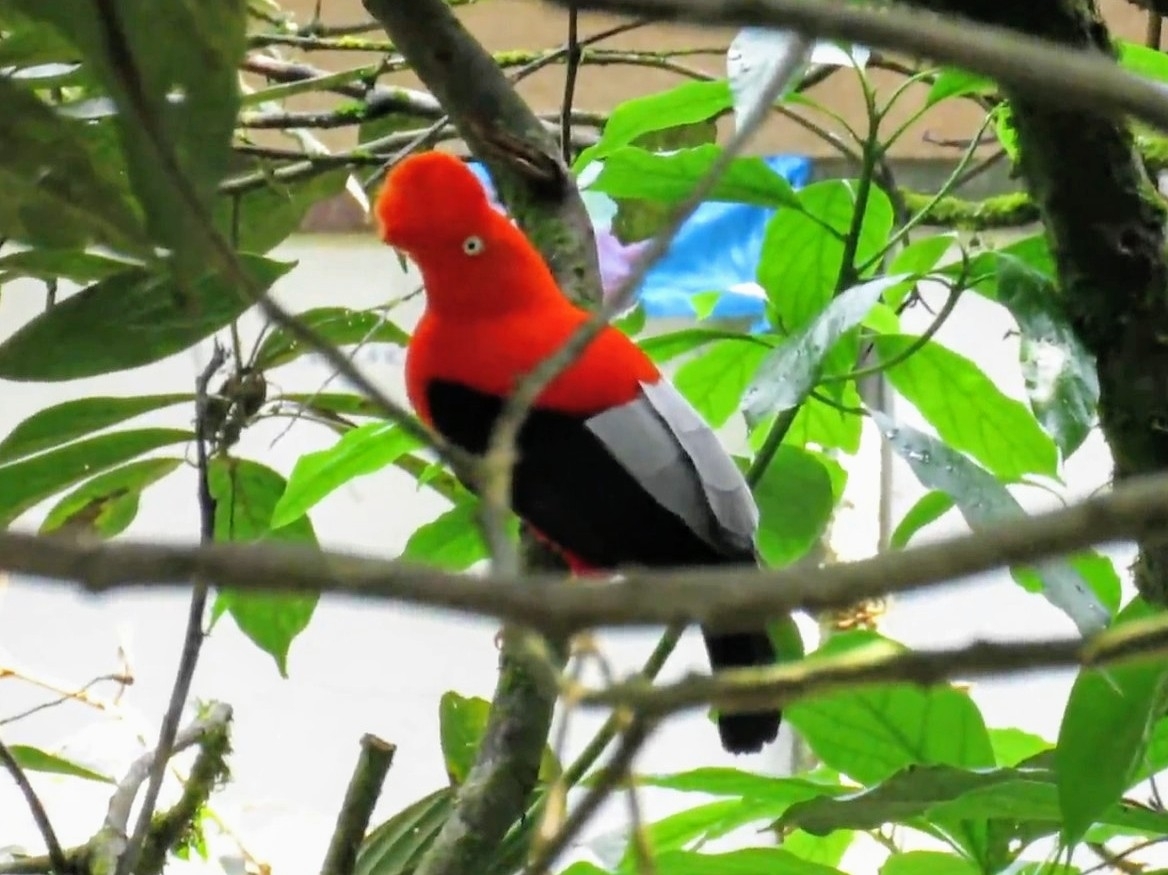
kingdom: Animalia
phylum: Chordata
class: Aves
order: Passeriformes
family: Cotingidae
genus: Rupicola
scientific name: Rupicola peruvianus
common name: Andean cock-of-the-rock
